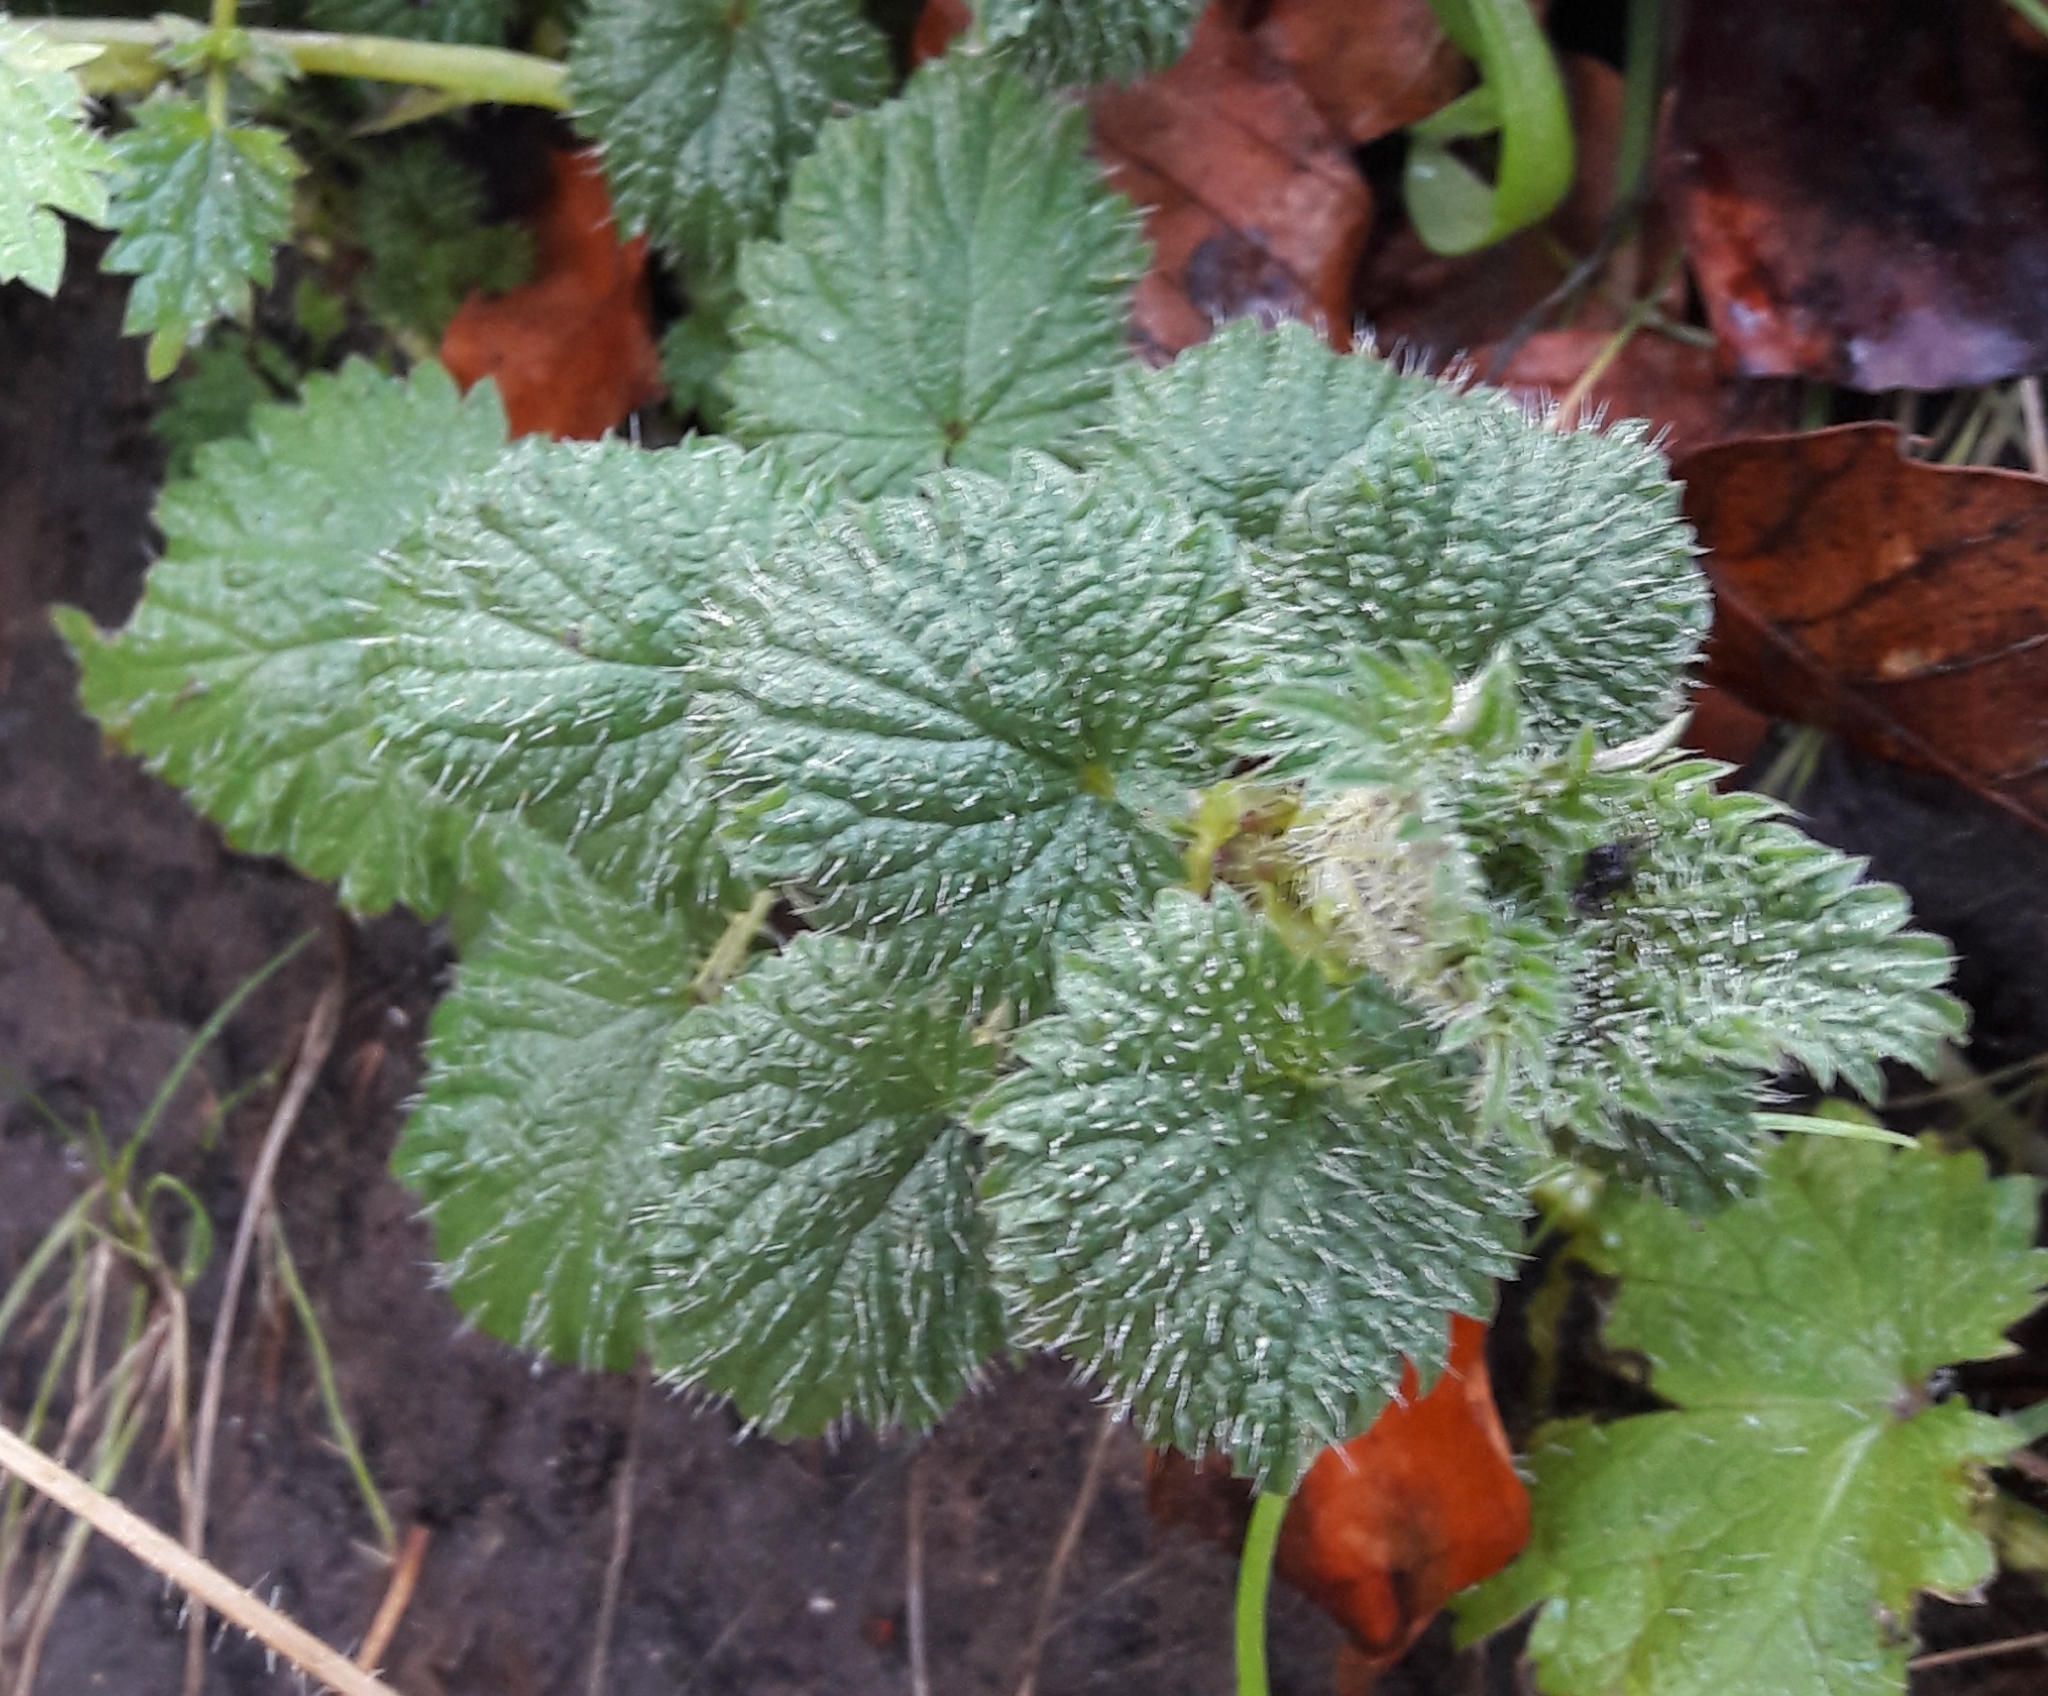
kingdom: Plantae
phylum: Tracheophyta
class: Magnoliopsida
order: Rosales
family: Urticaceae
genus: Urtica
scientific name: Urtica dioica
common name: Common nettle
